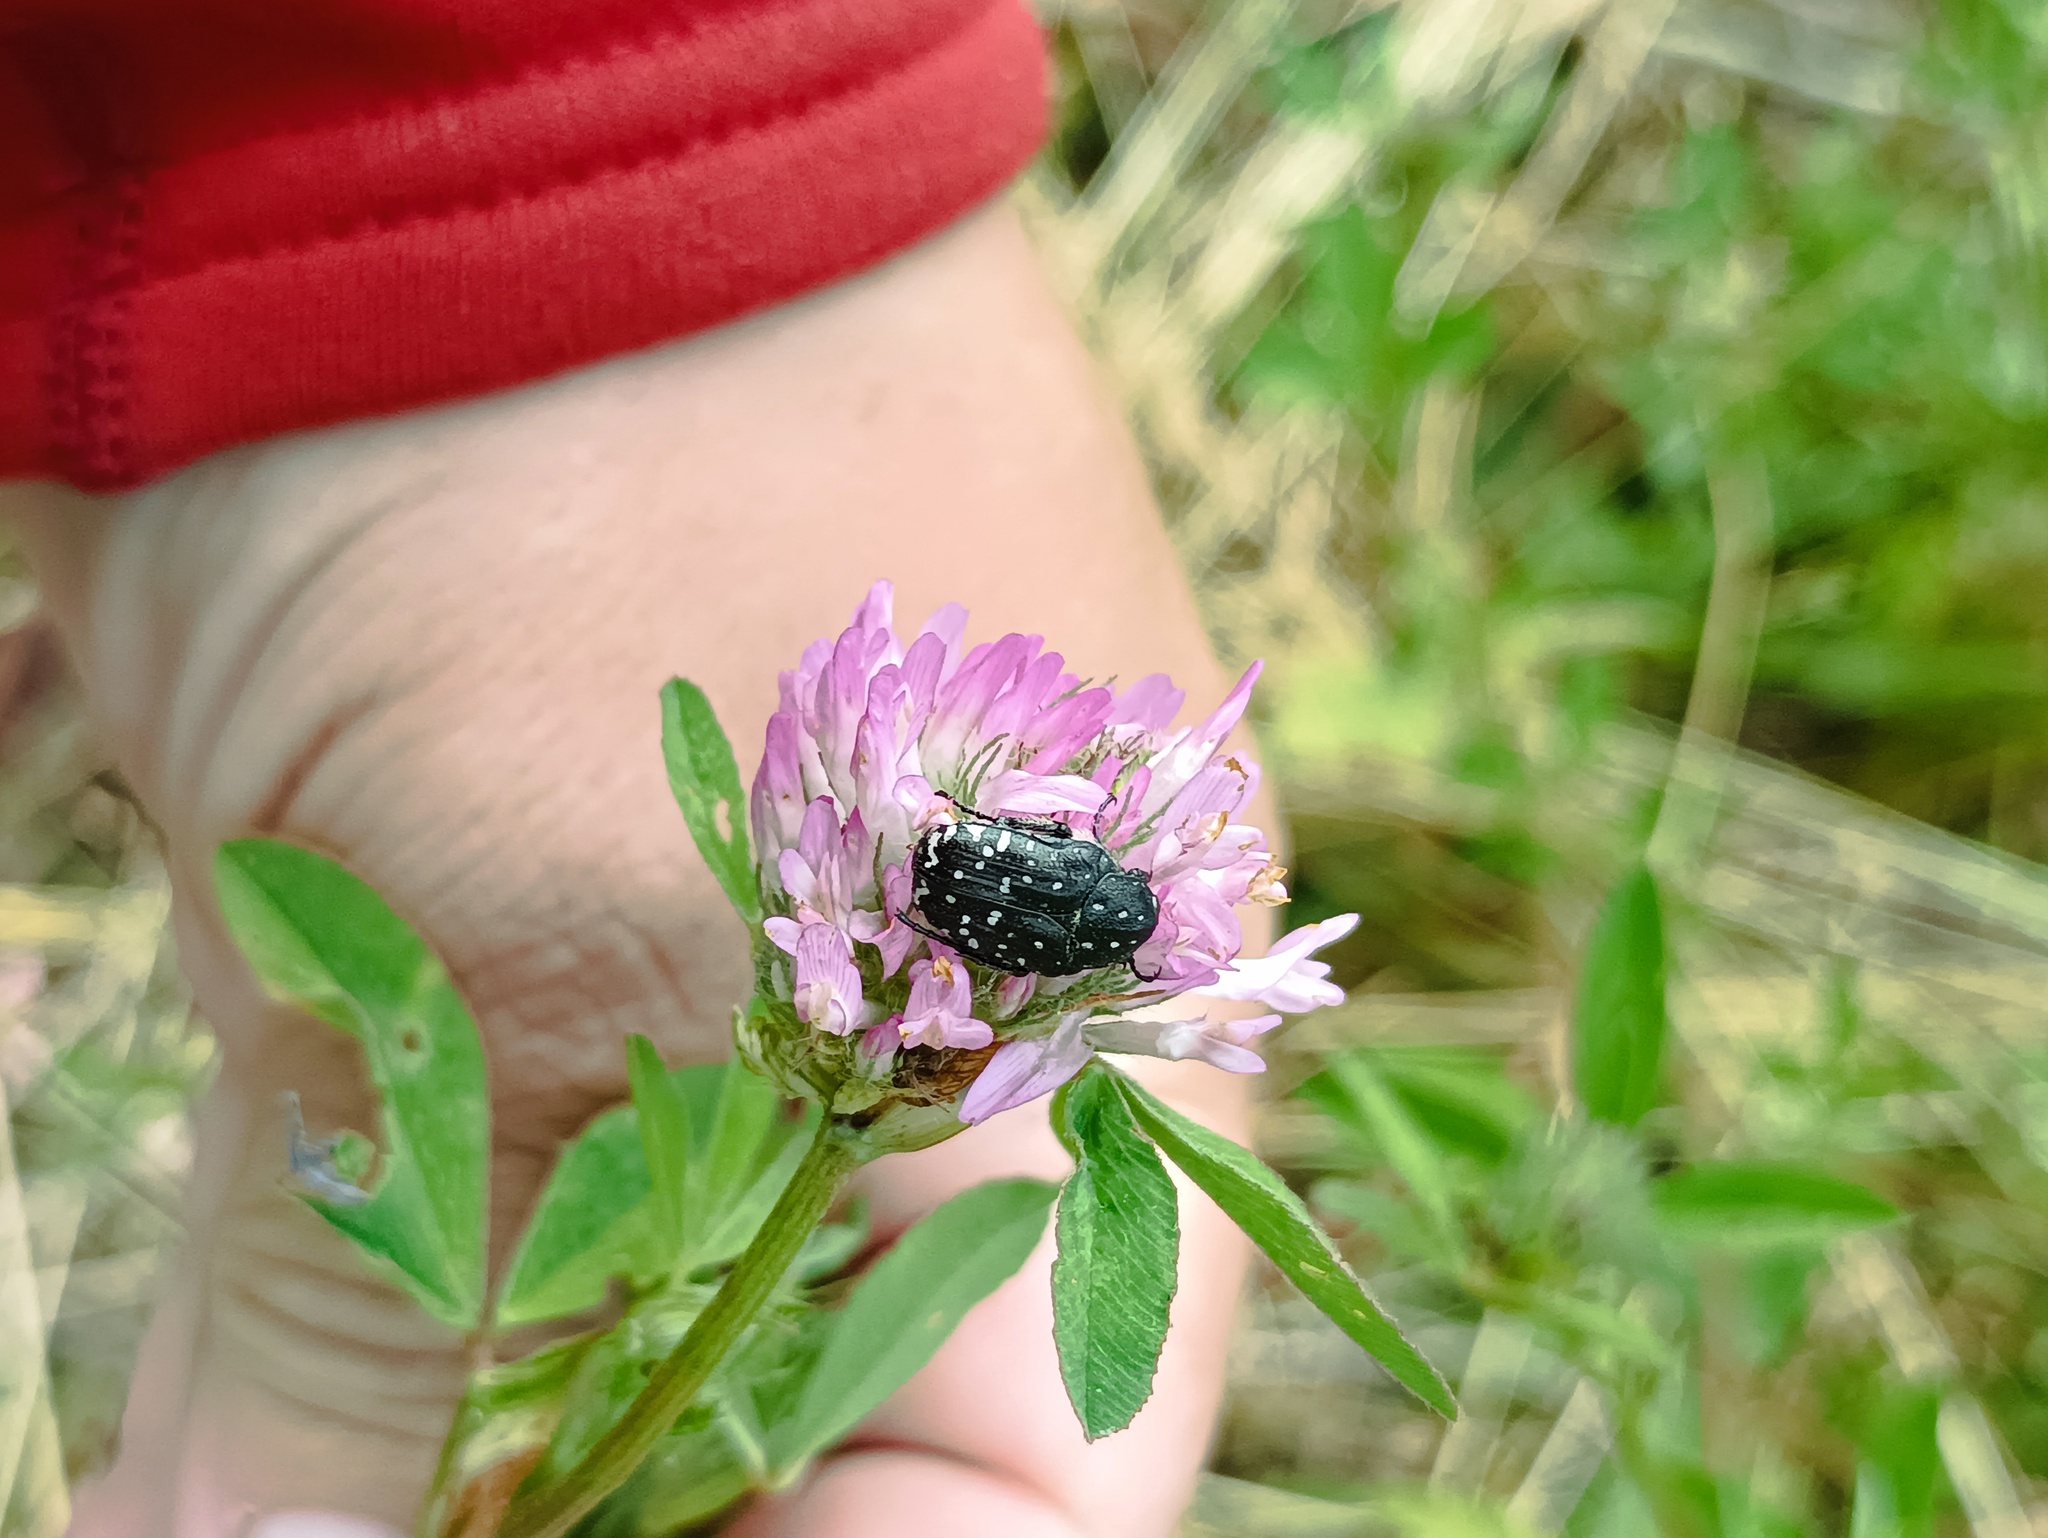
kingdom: Animalia
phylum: Arthropoda
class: Insecta
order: Coleoptera
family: Scarabaeidae
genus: Oxythyrea
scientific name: Oxythyrea funesta
